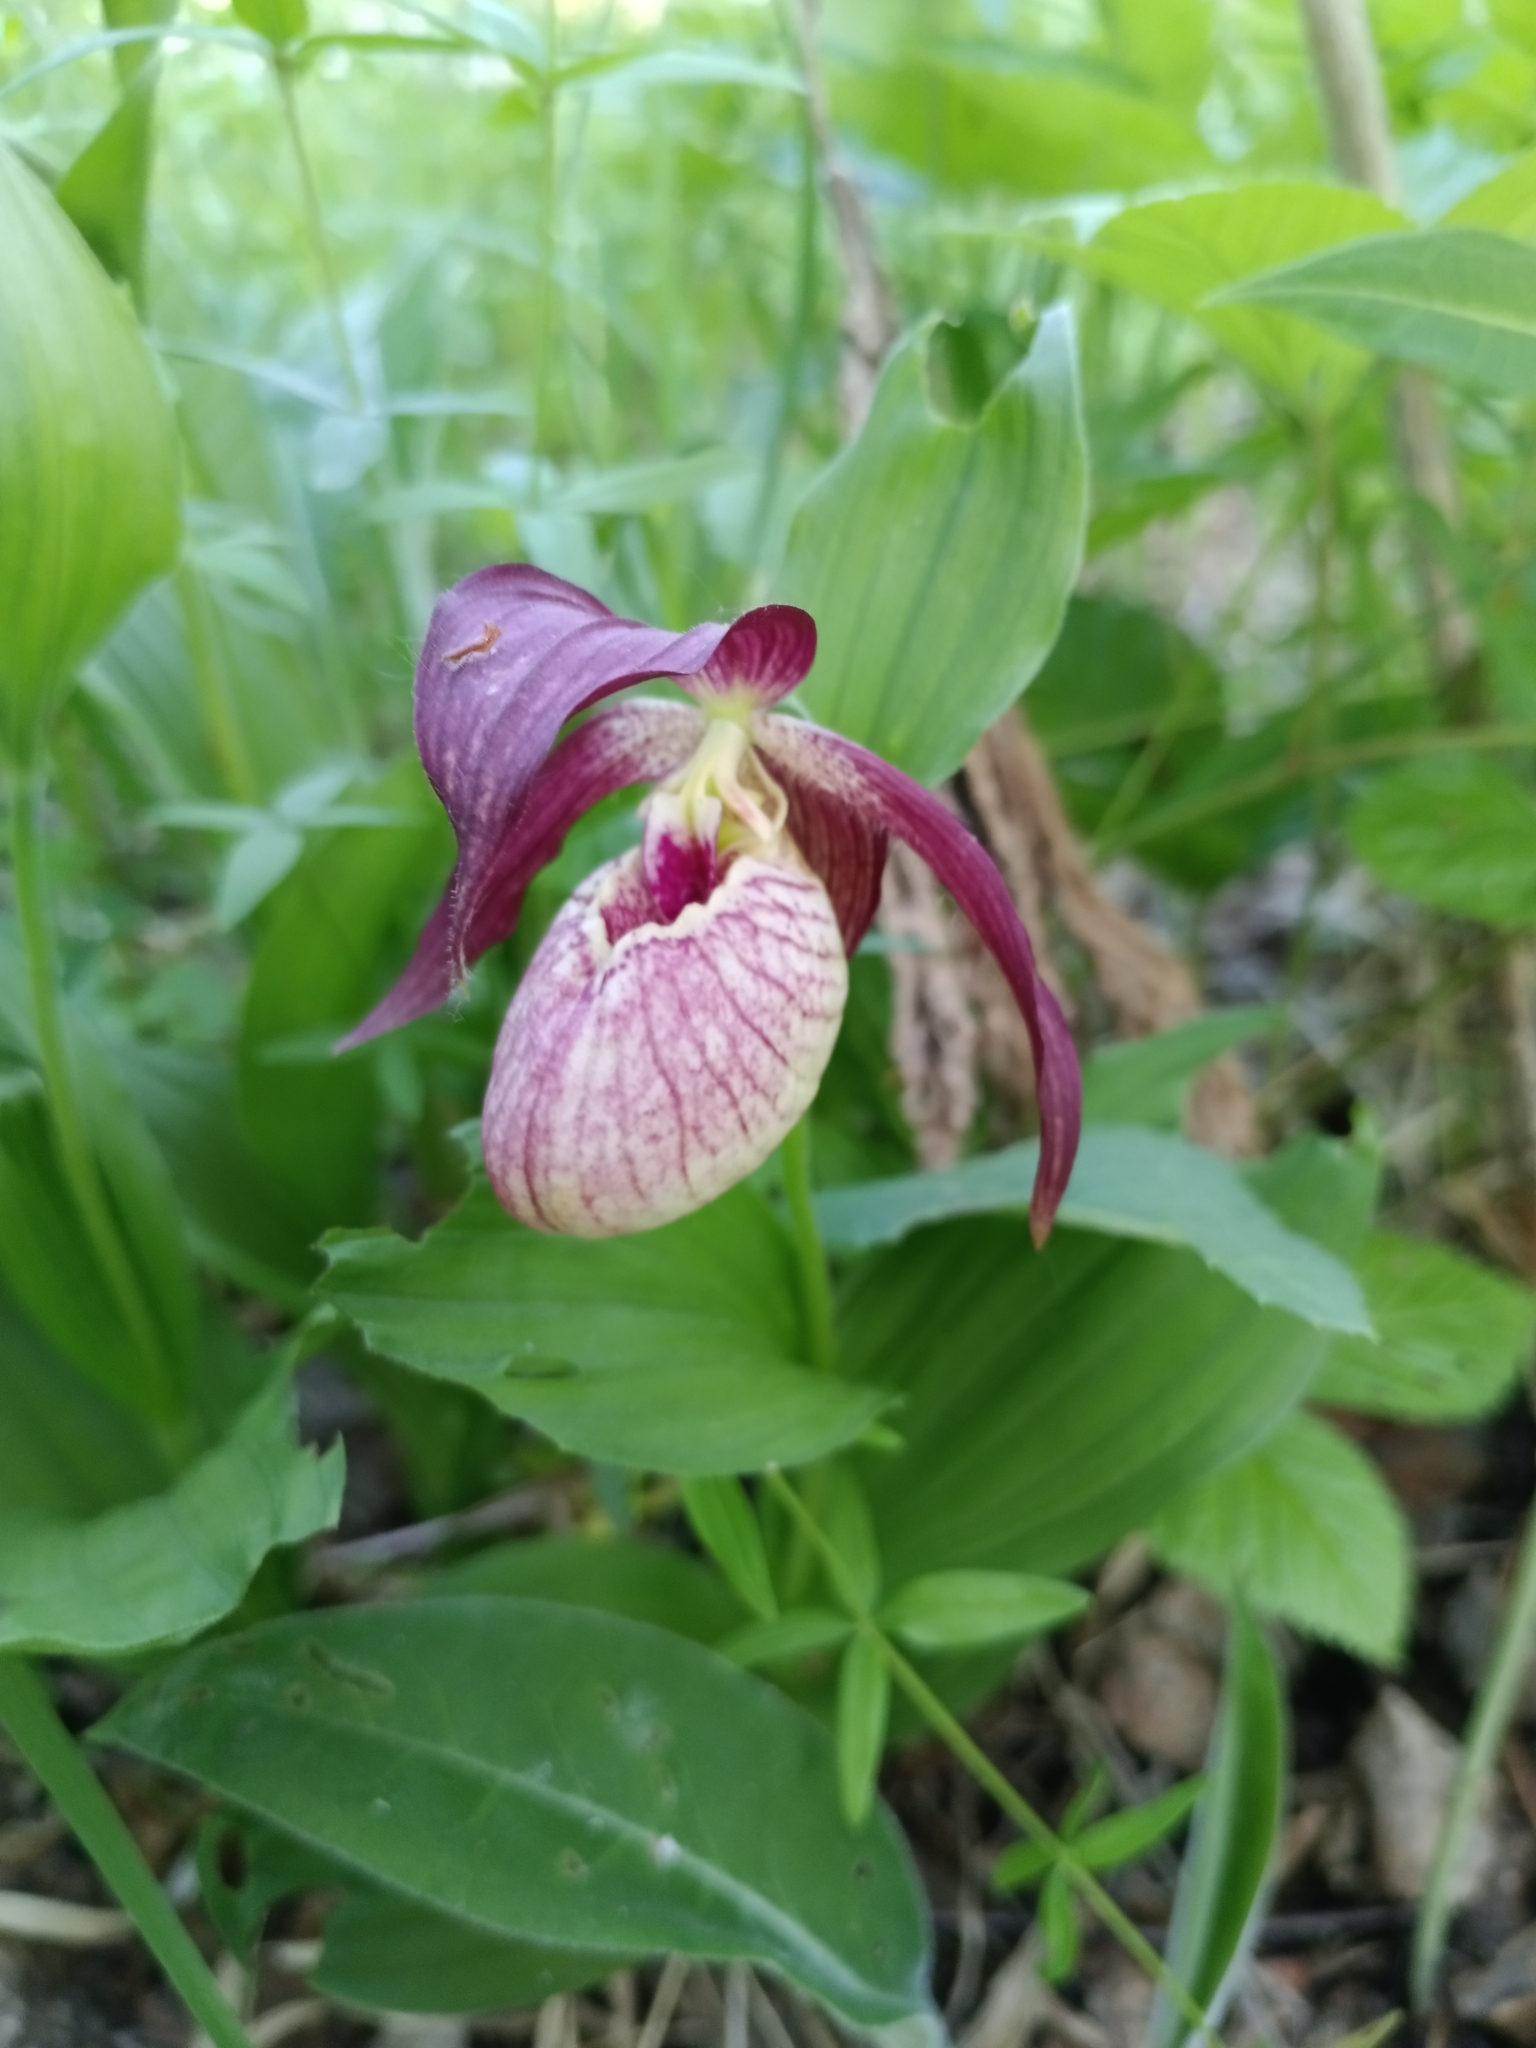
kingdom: Plantae
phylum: Tracheophyta
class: Liliopsida
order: Asparagales
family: Orchidaceae
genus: Cypripedium
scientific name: Cypripedium ventricosum
